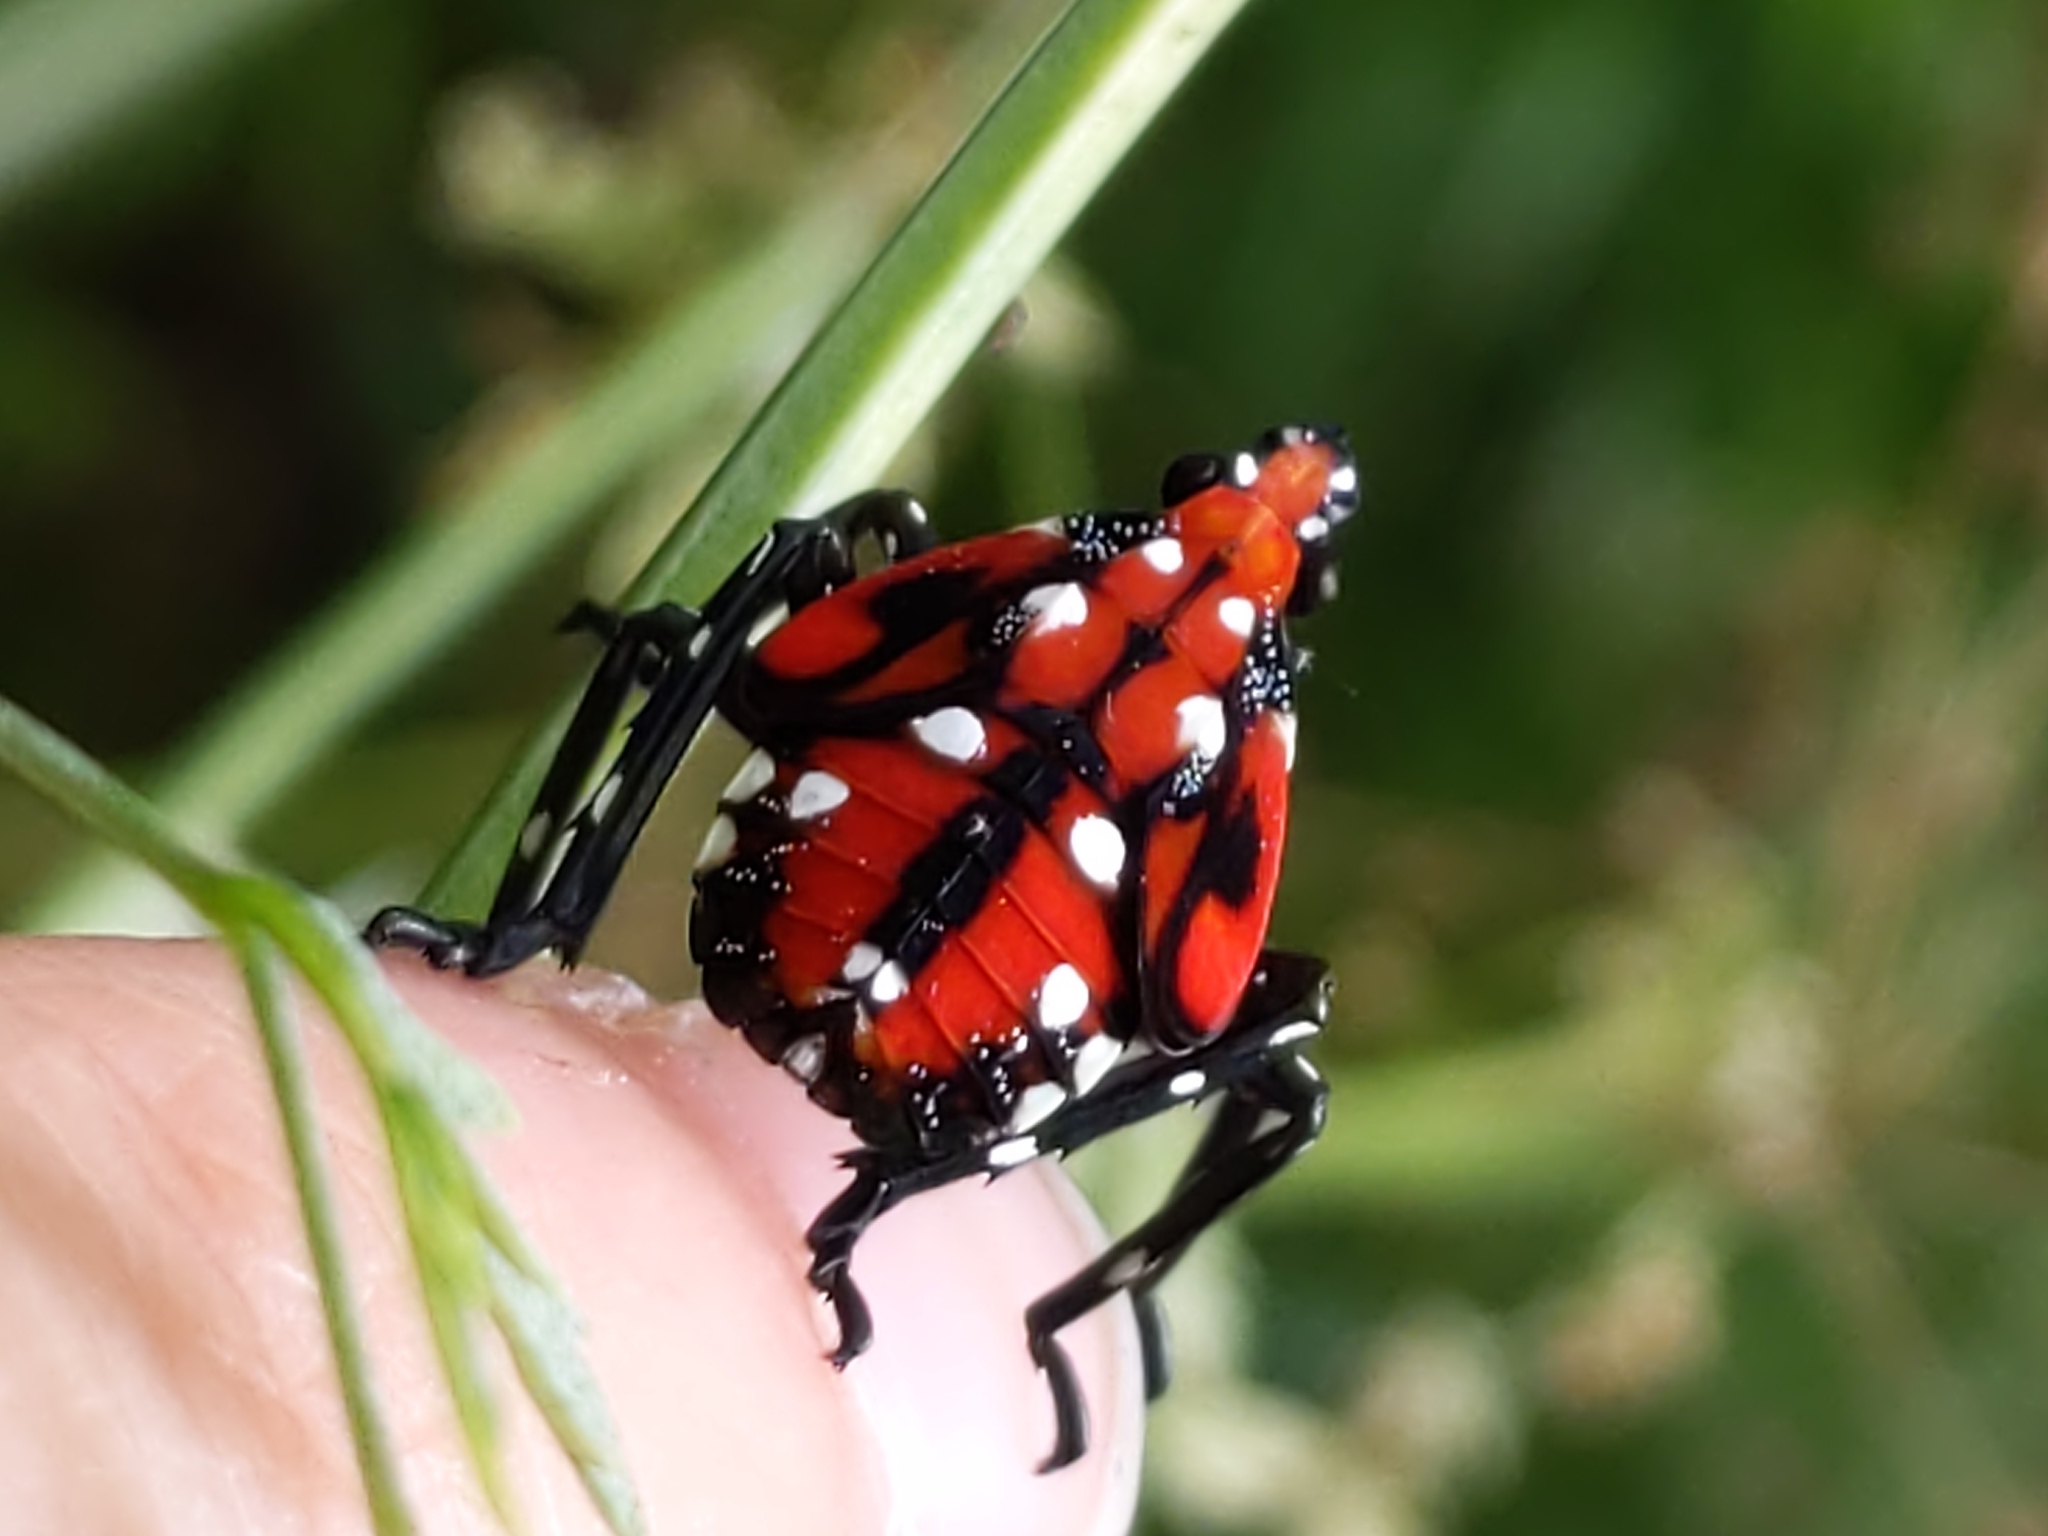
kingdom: Animalia
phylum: Arthropoda
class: Insecta
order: Hemiptera
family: Fulgoridae
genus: Lycorma
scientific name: Lycorma delicatula
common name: Spotted lanternfly
